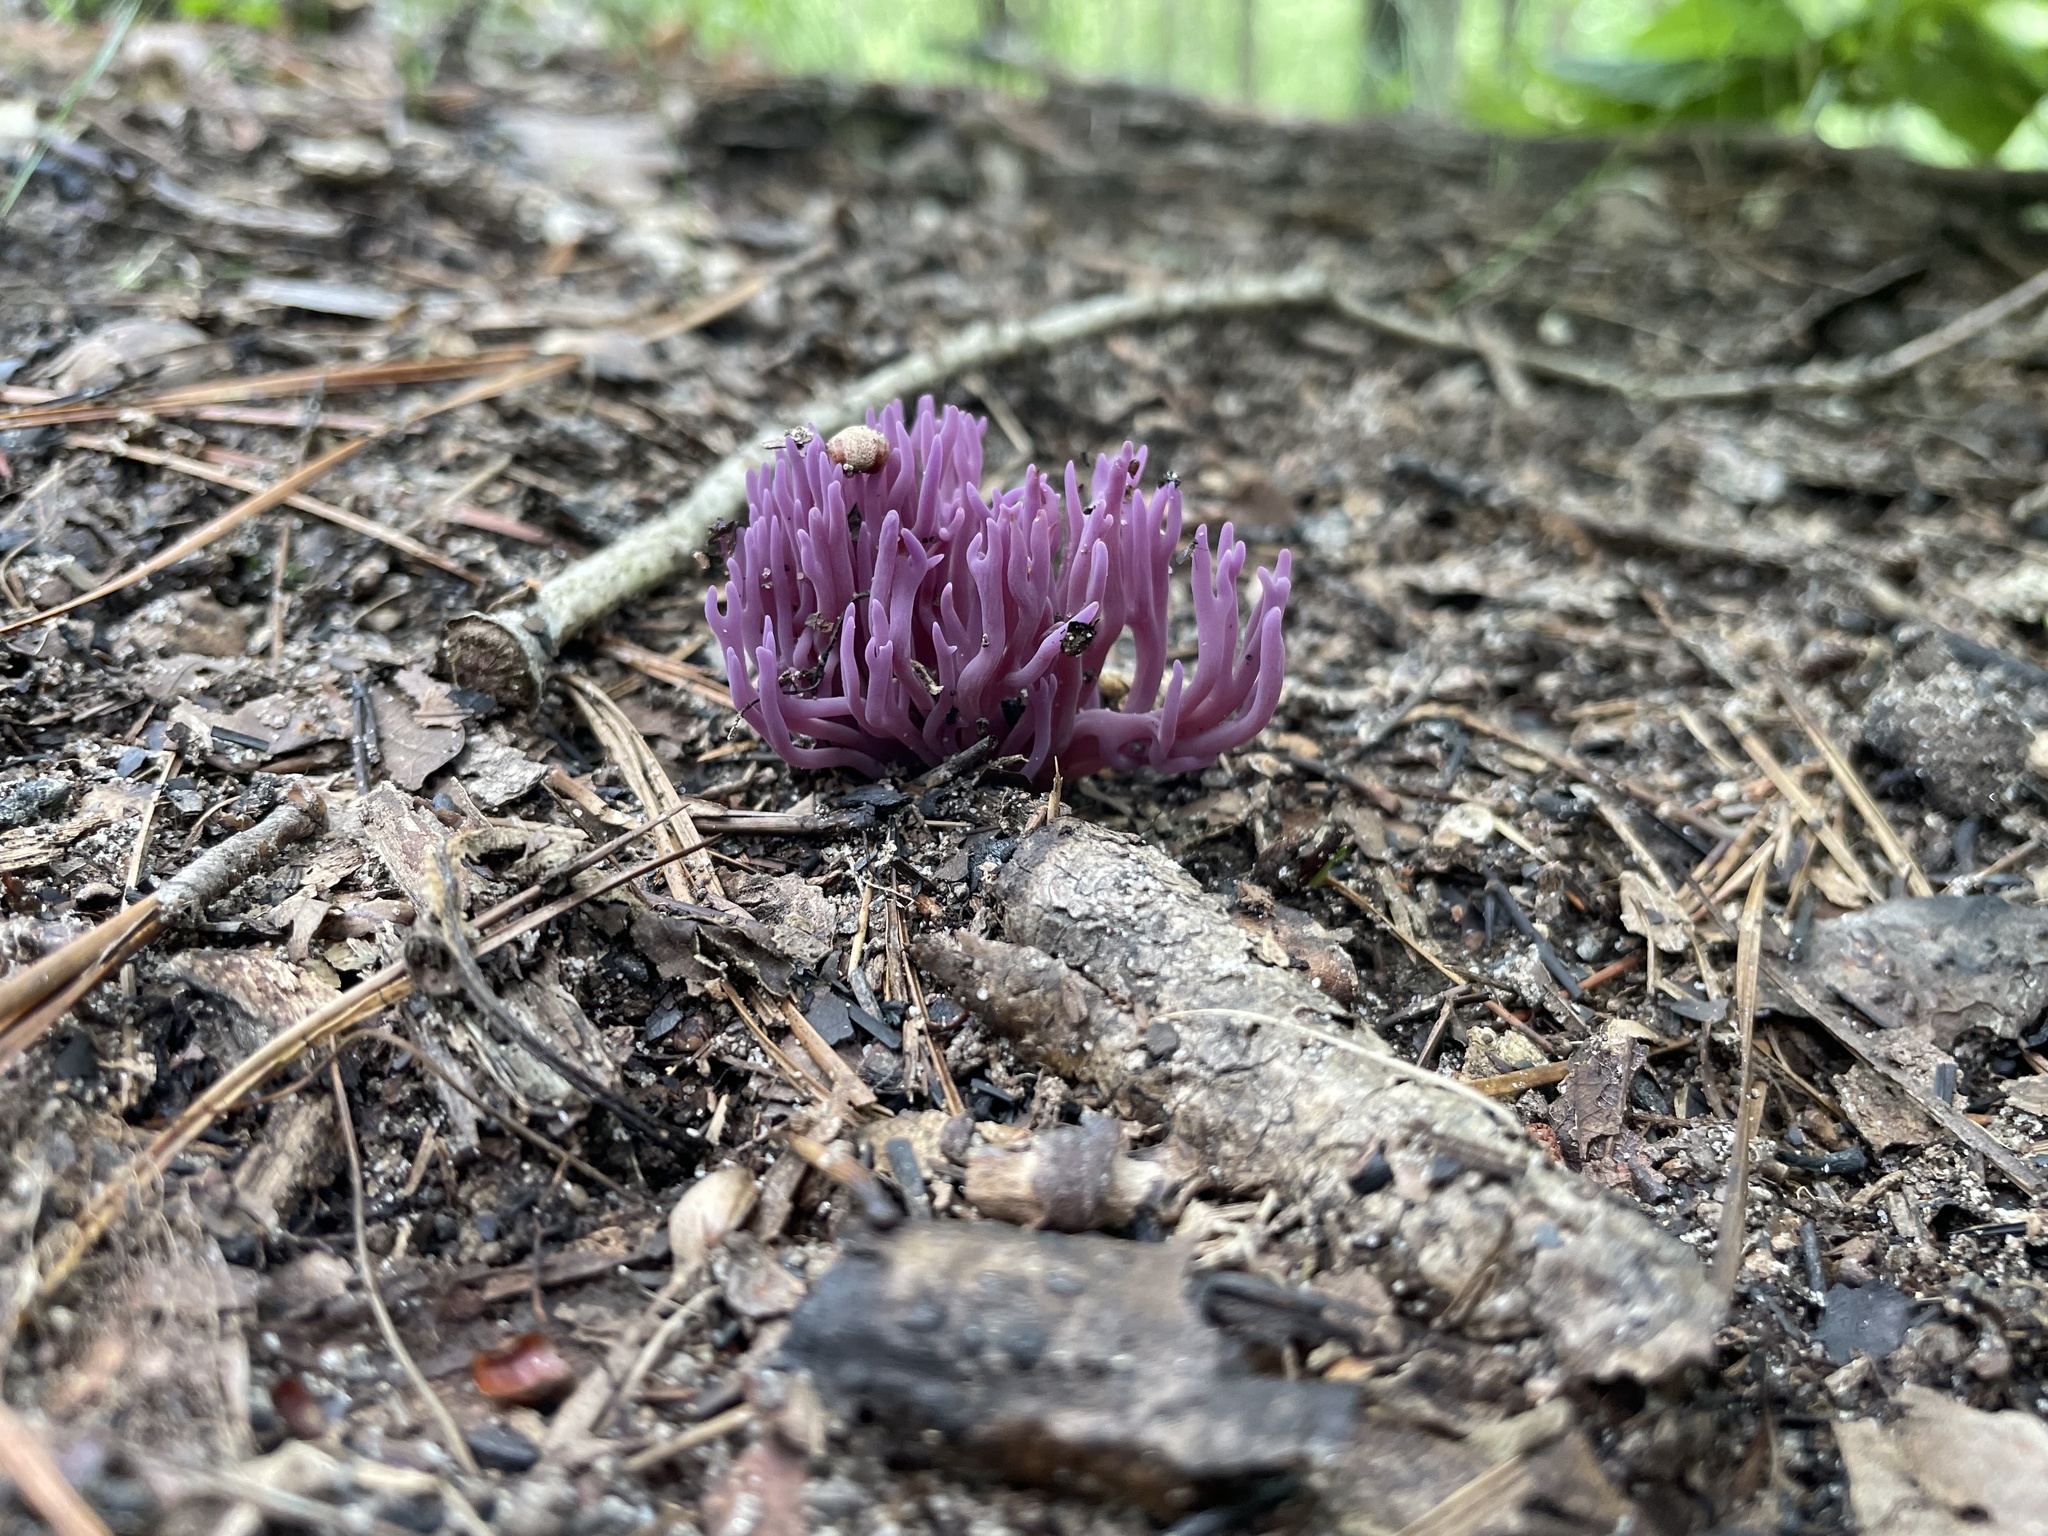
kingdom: Fungi
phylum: Basidiomycota
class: Agaricomycetes
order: Agaricales
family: Clavariaceae
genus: Clavaria
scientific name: Clavaria zollingeri
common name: Violet coral
